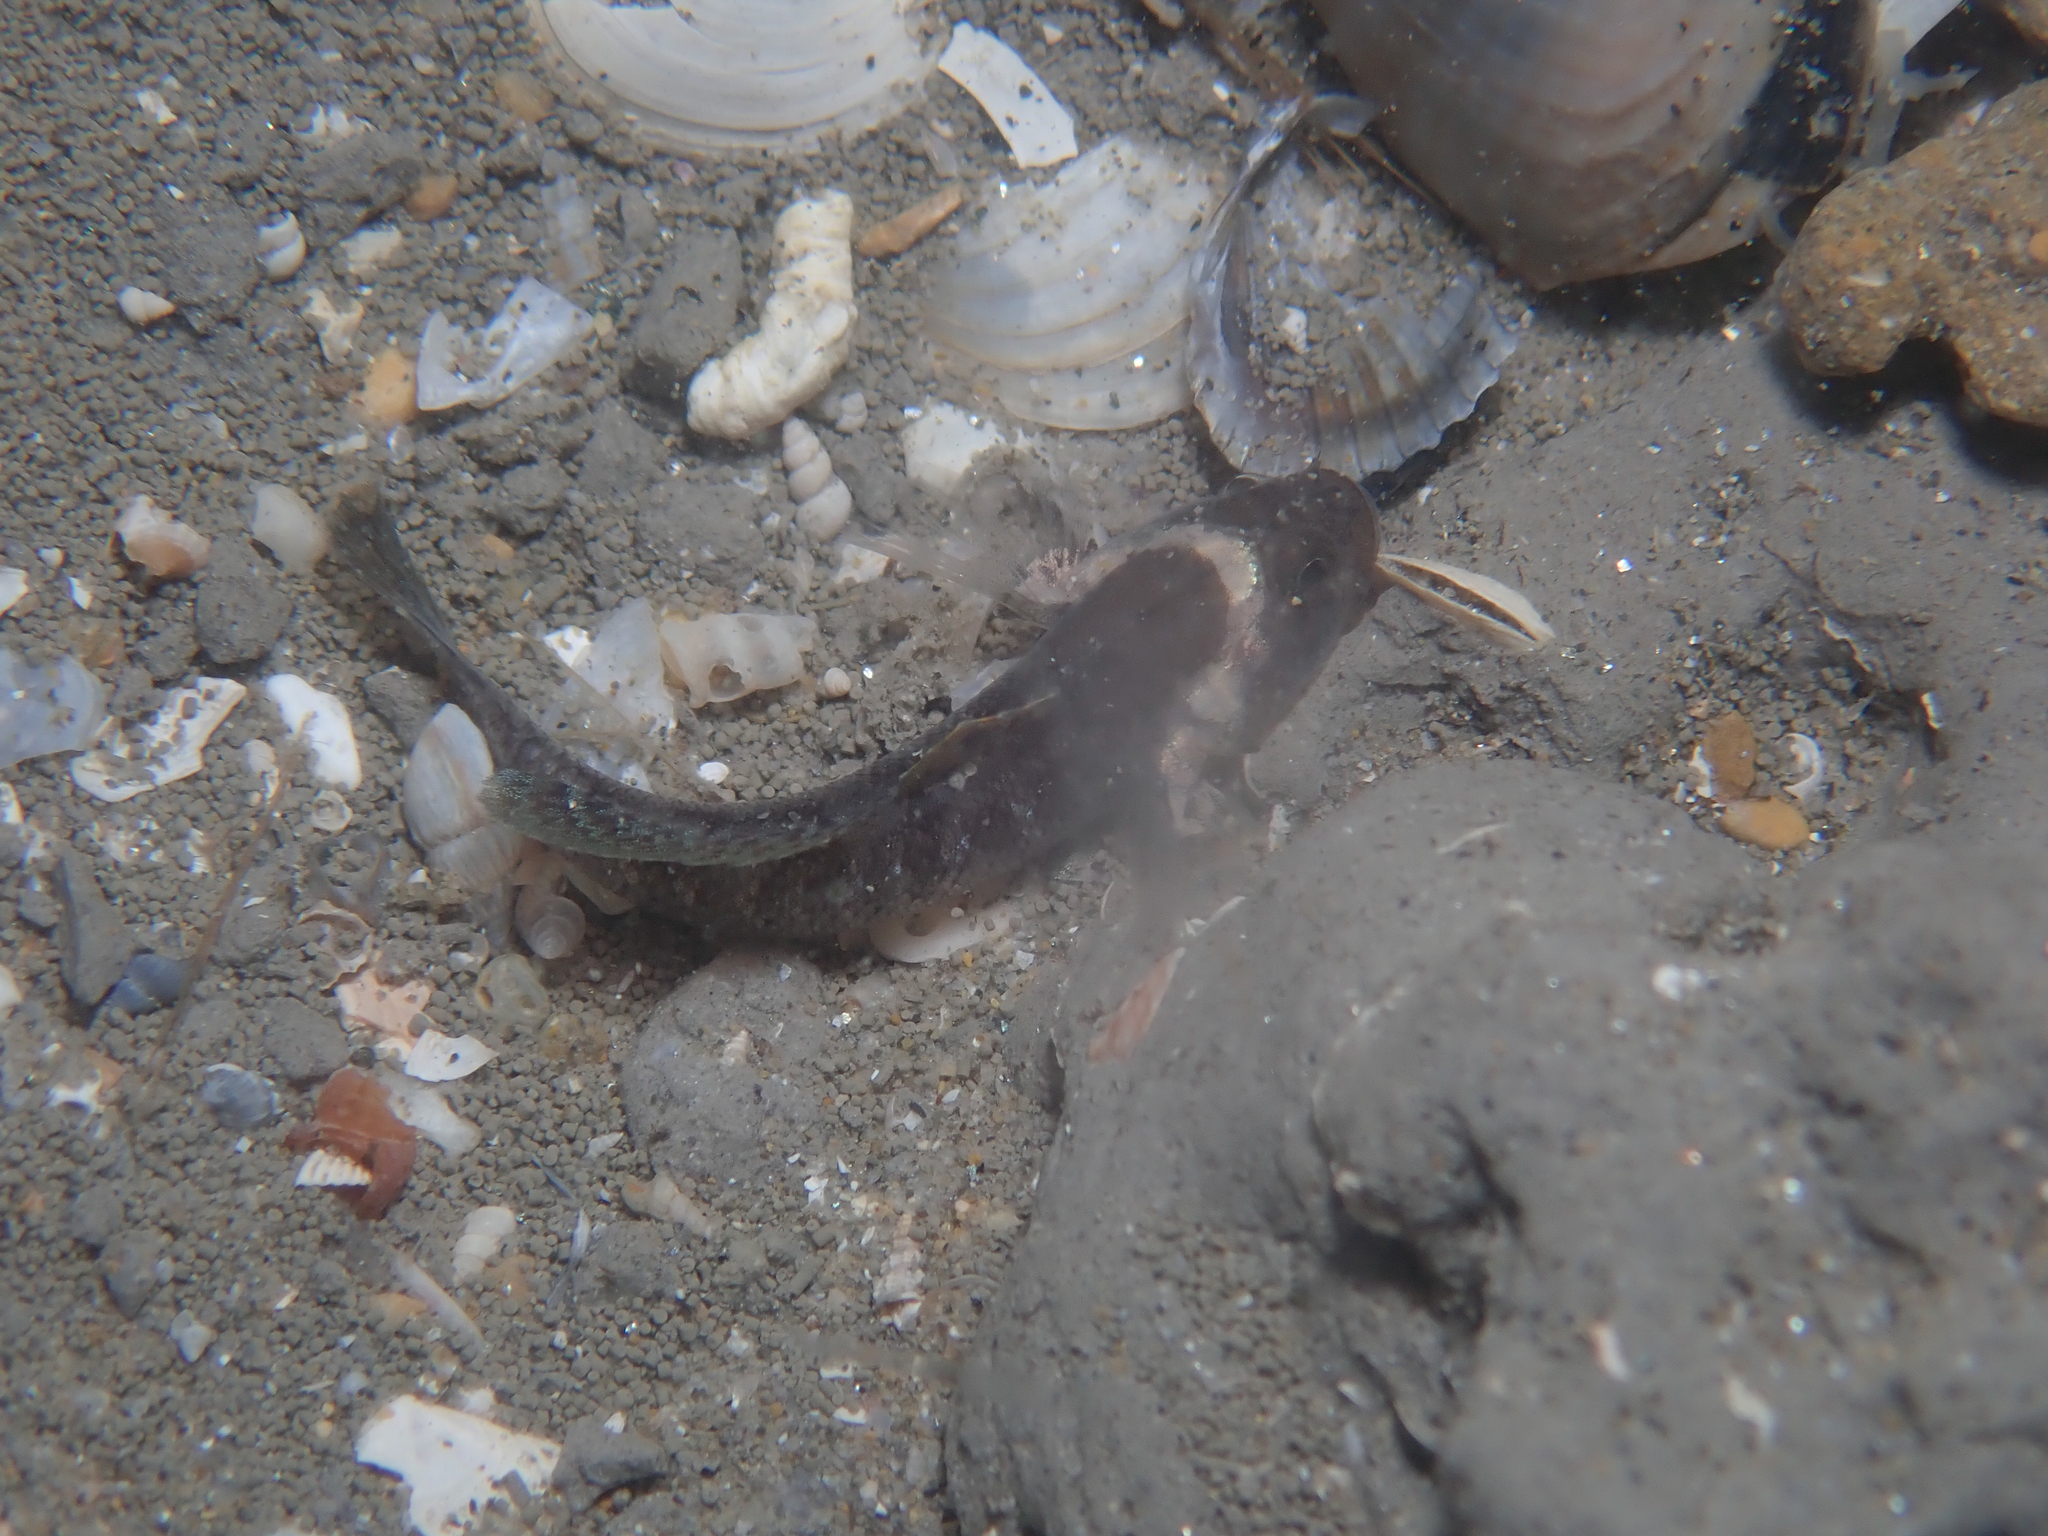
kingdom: Animalia
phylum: Chordata
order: Perciformes
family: Gobiidae
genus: Zebrus
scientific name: Zebrus zebrus
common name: Zebra goby
